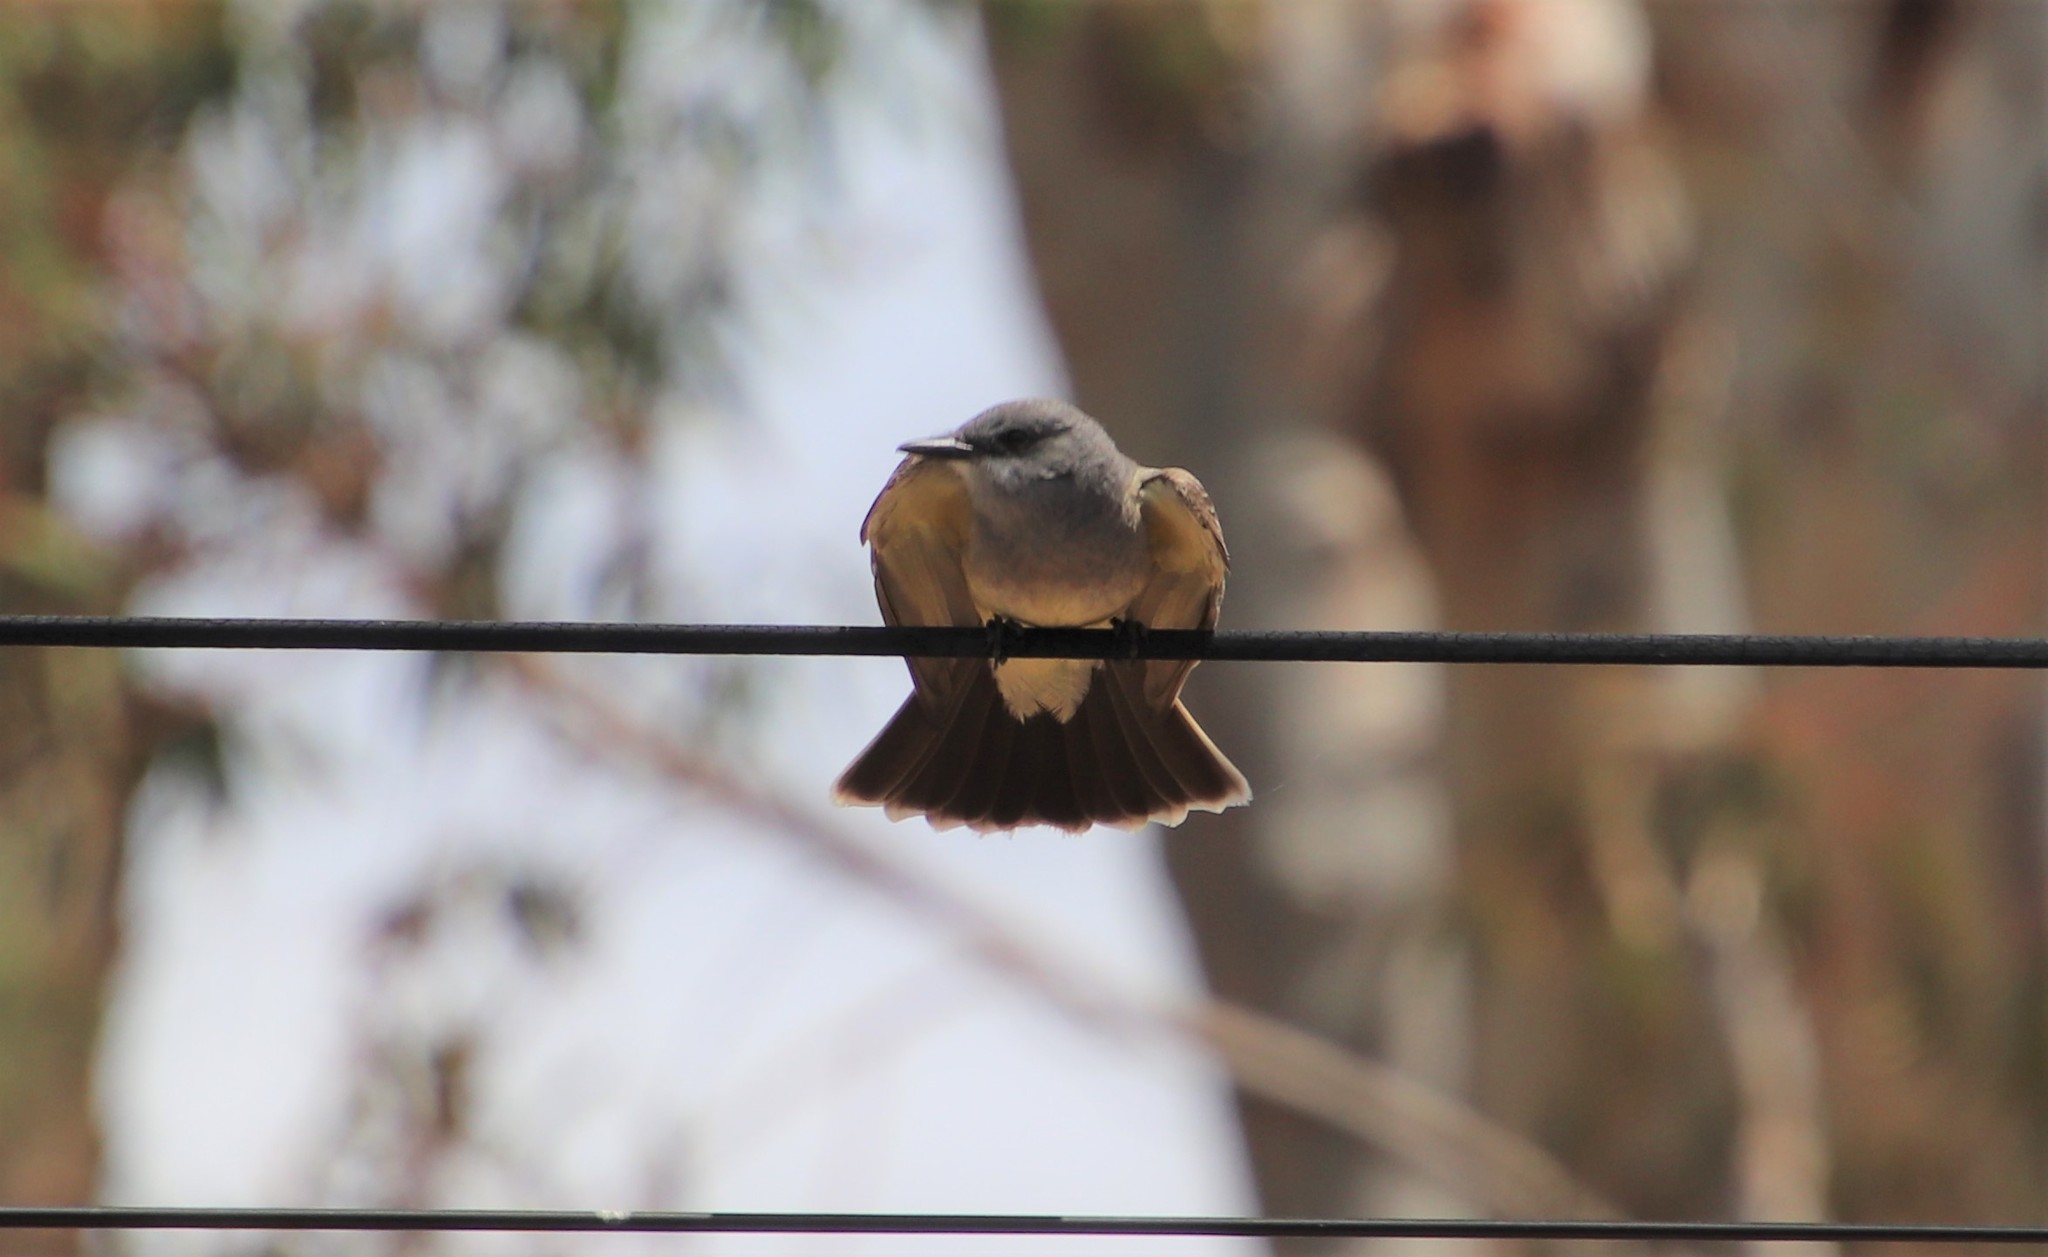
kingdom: Animalia
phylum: Chordata
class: Aves
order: Passeriformes
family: Tyrannidae
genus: Tyrannus
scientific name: Tyrannus vociferans
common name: Cassin's kingbird
